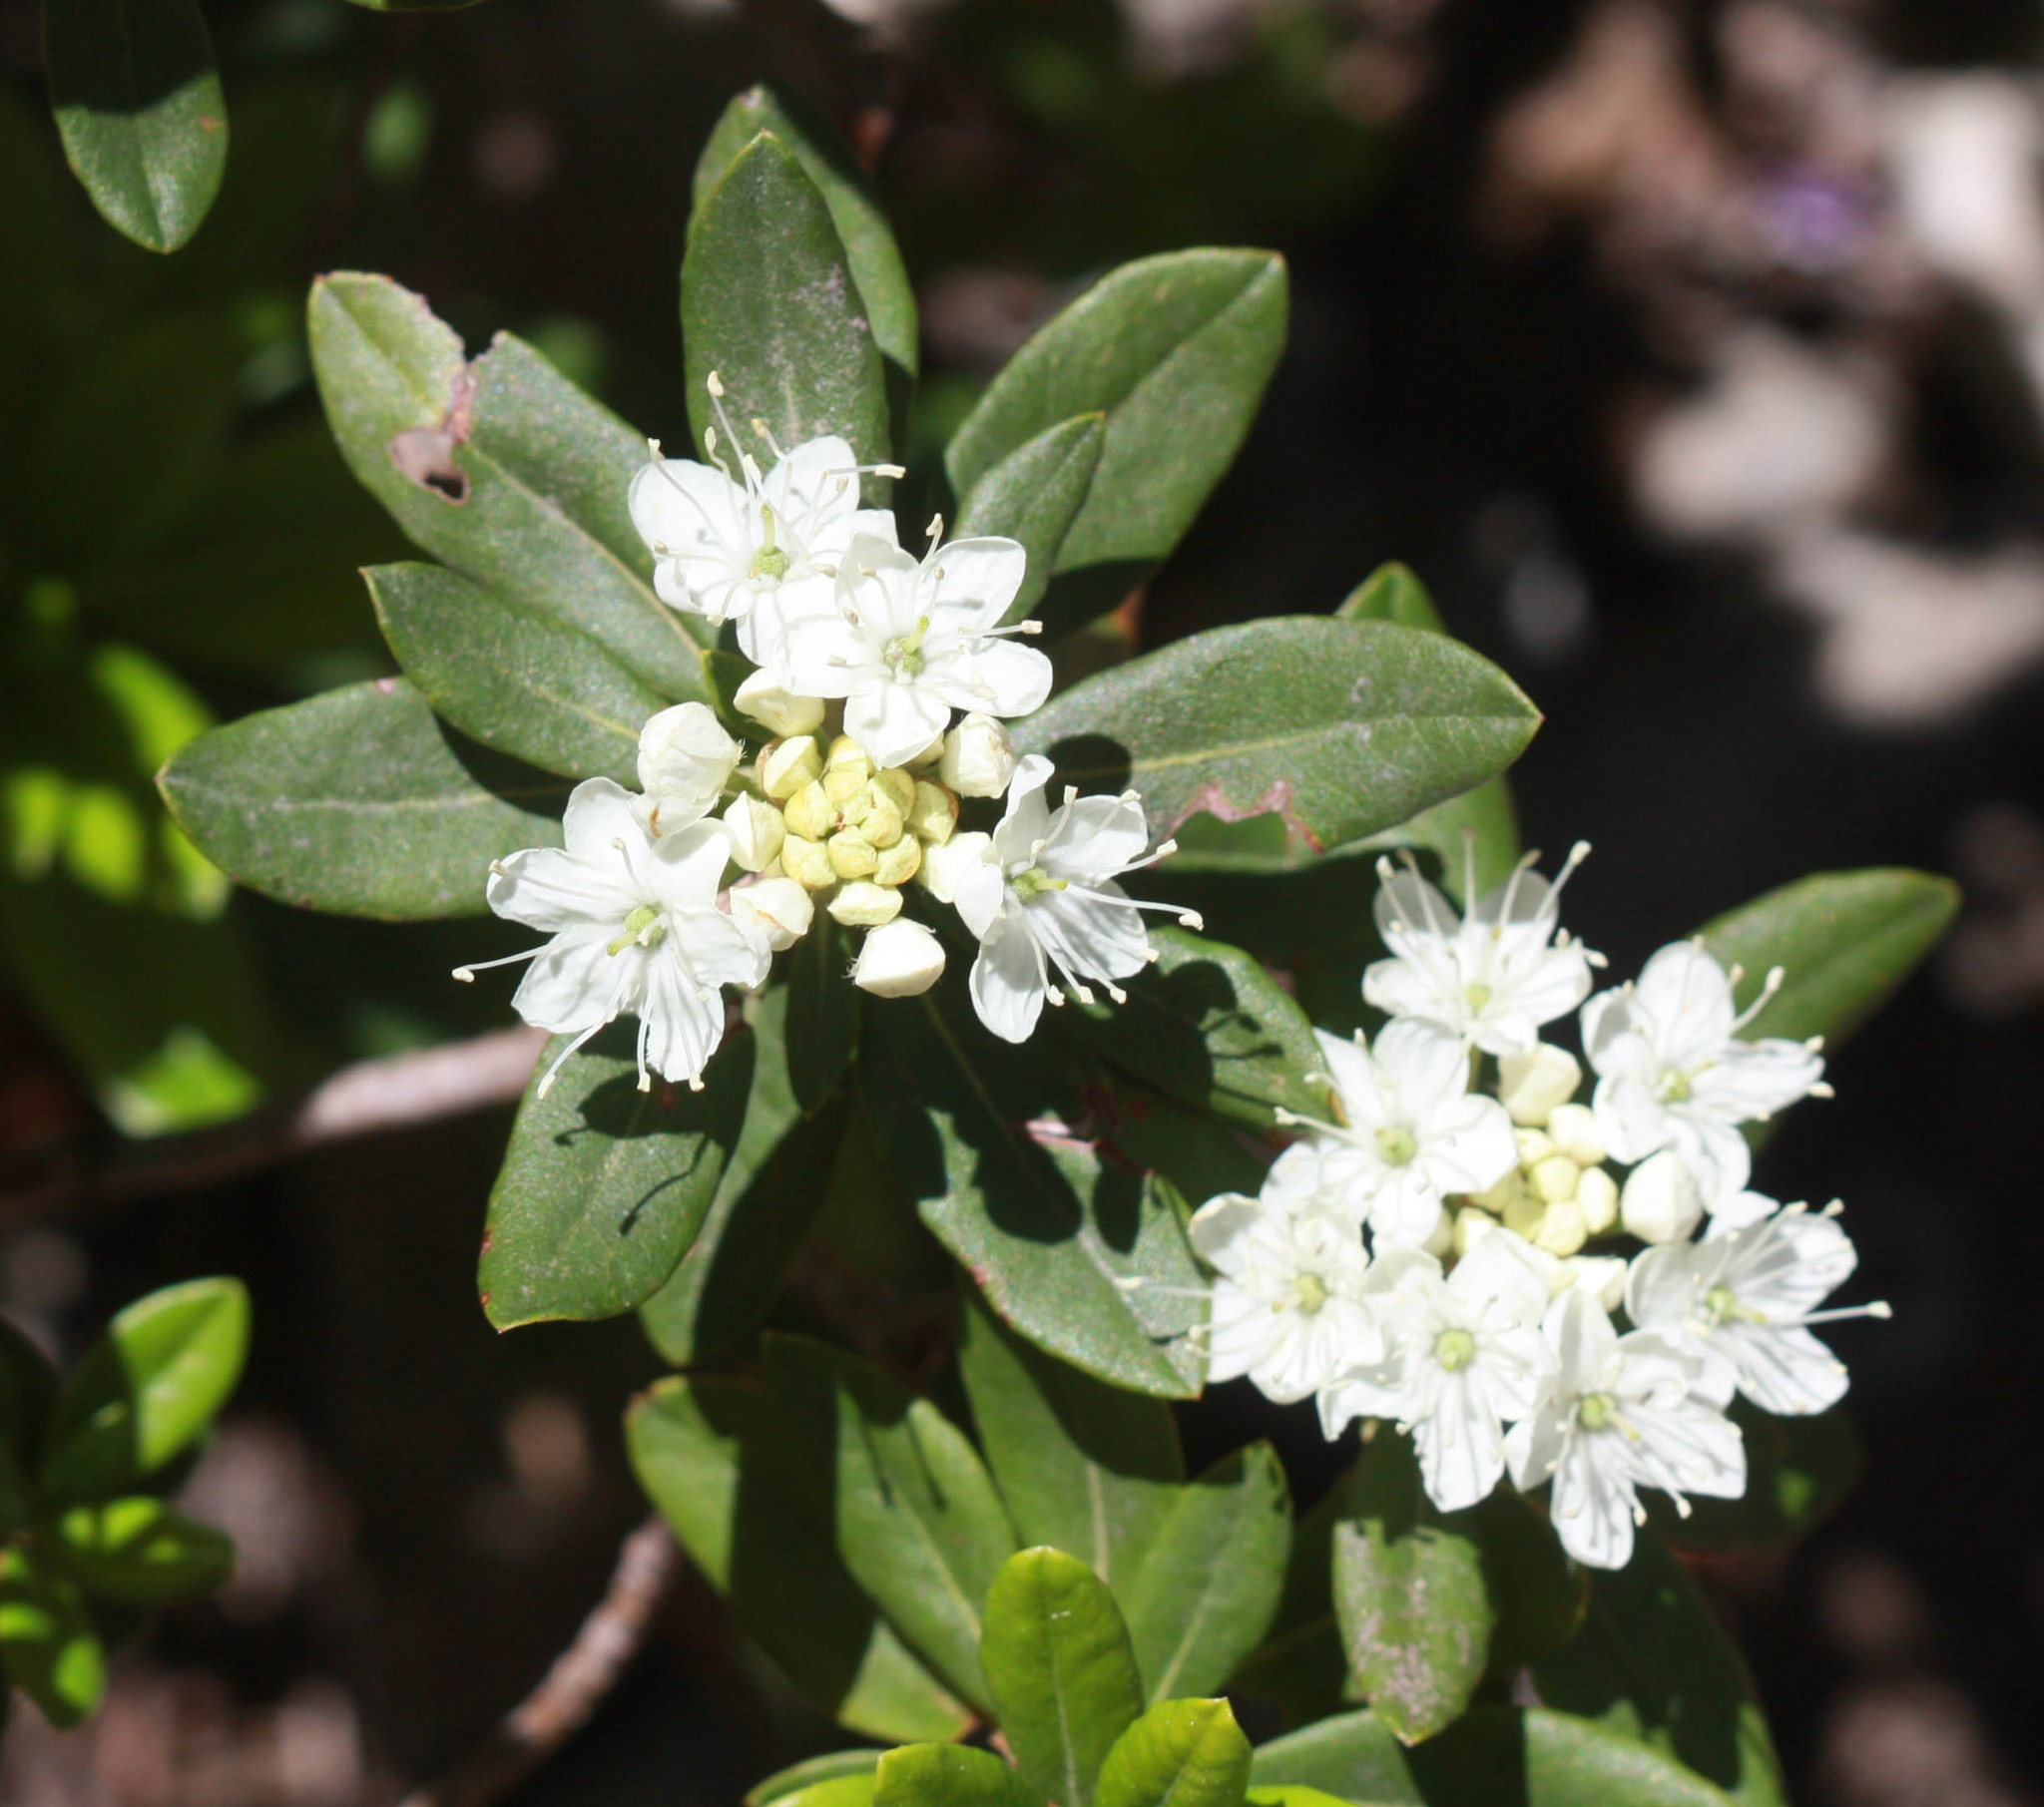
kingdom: Plantae
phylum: Tracheophyta
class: Magnoliopsida
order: Ericales
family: Ericaceae
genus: Rhododendron
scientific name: Rhododendron columbianum
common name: Western labrador tea
